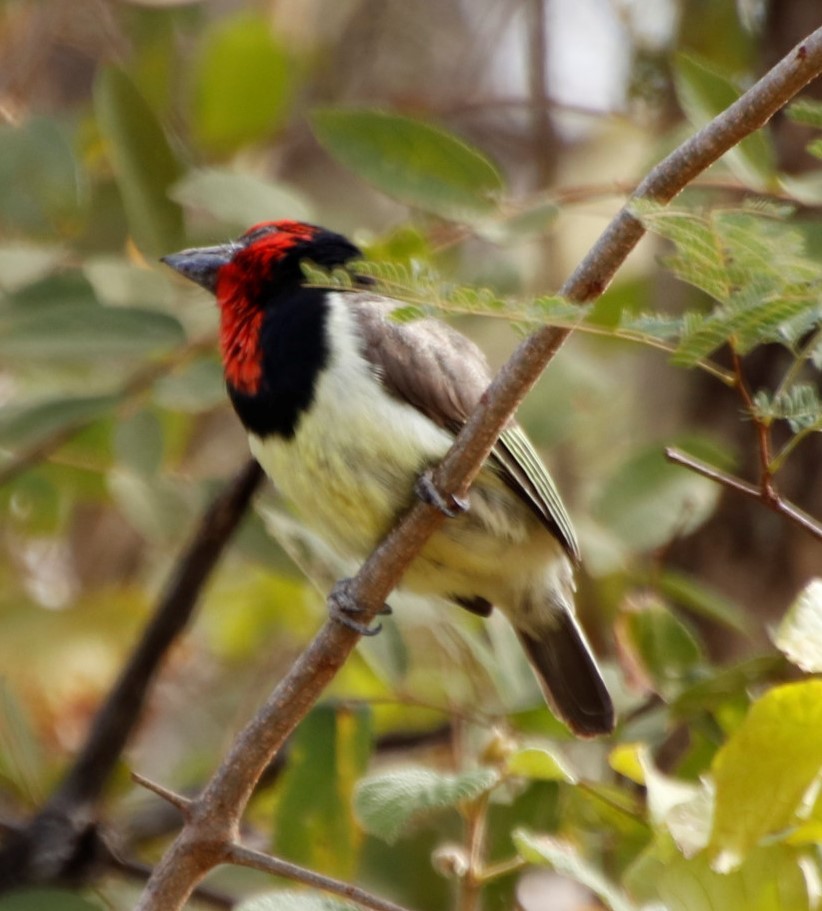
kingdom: Animalia
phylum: Chordata
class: Aves
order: Piciformes
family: Lybiidae
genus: Lybius
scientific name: Lybius torquatus
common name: Black-collared barbet
